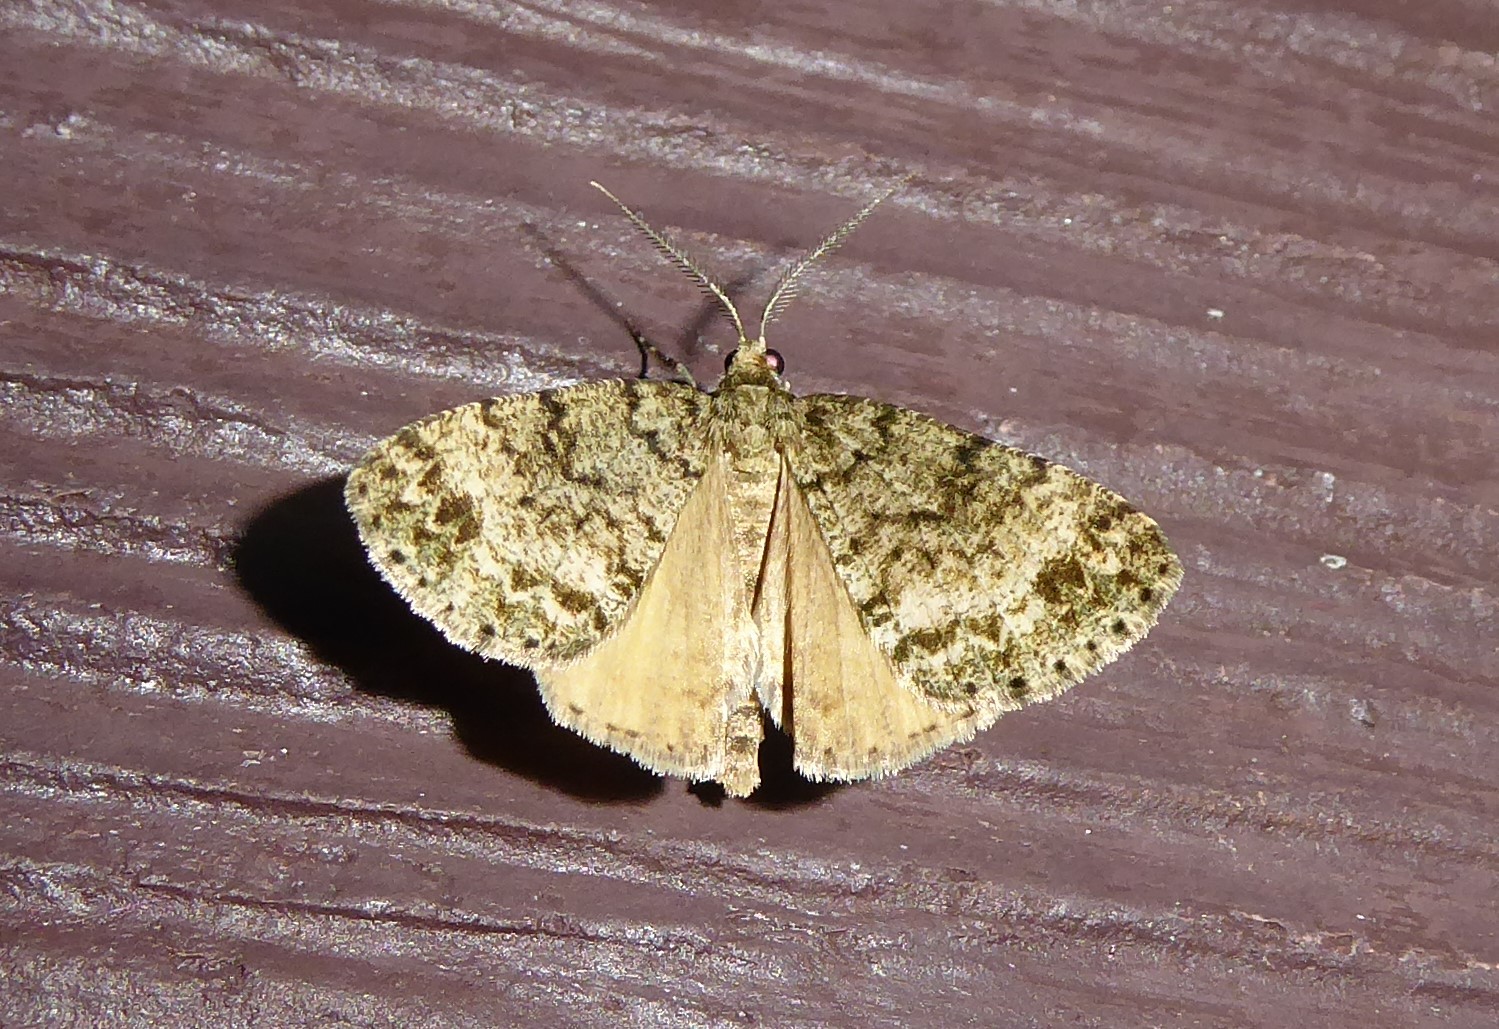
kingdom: Animalia
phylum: Arthropoda
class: Insecta
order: Lepidoptera
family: Geometridae
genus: Pseudocoremia
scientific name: Pseudocoremia indistincta
